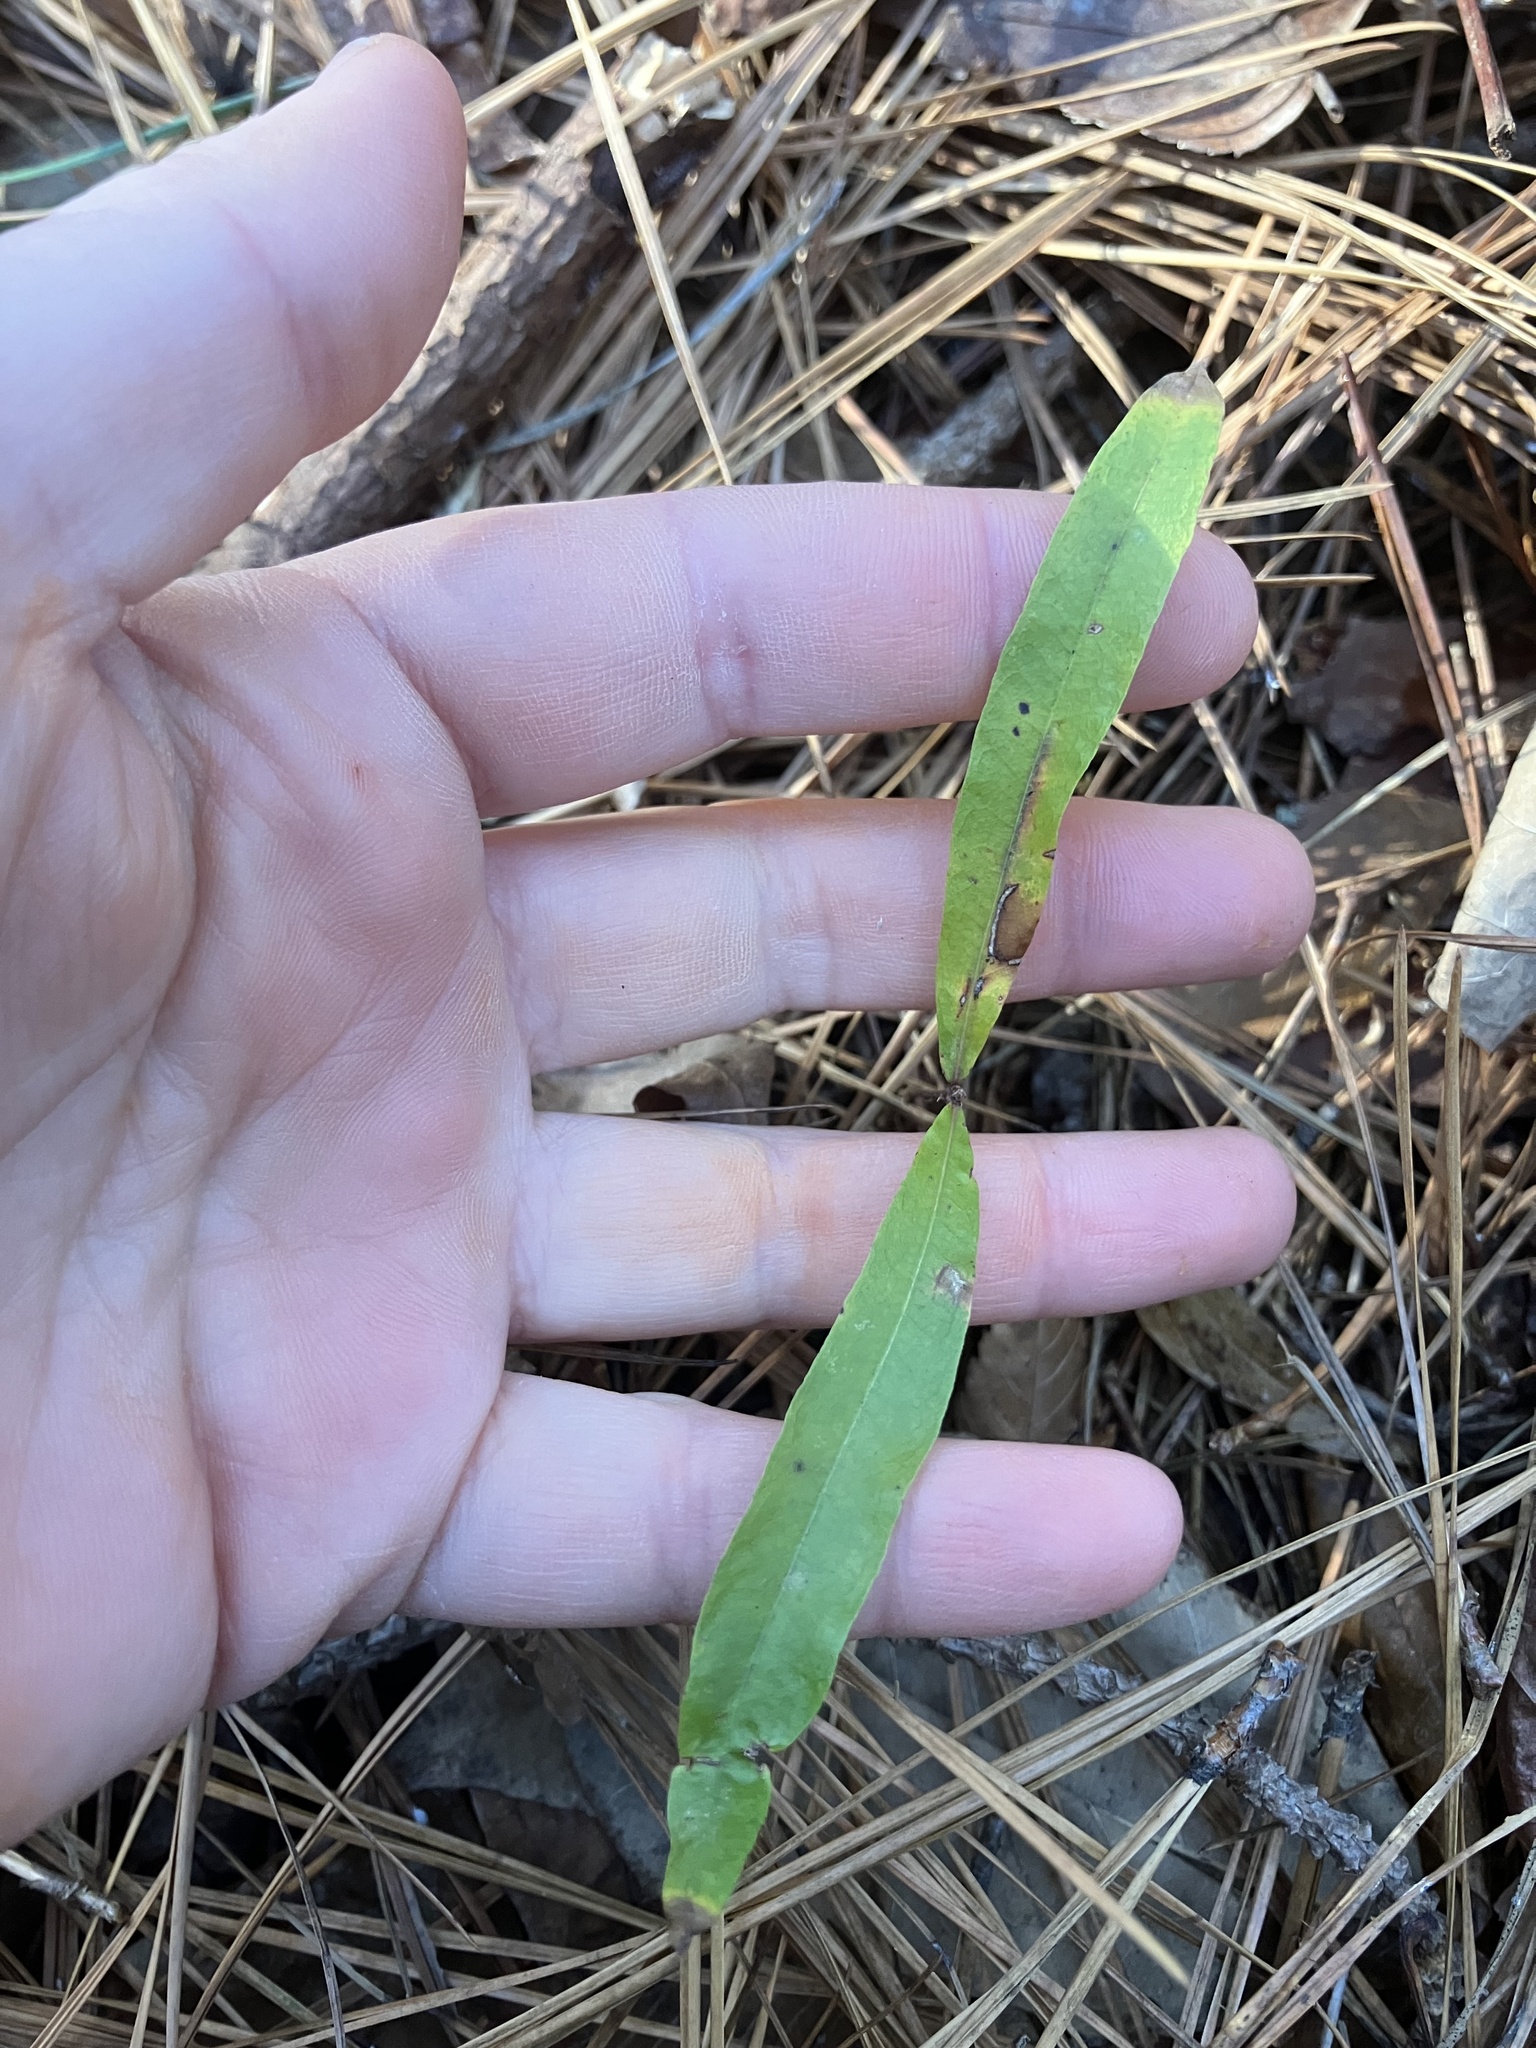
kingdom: Plantae
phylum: Tracheophyta
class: Magnoliopsida
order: Fagales
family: Fagaceae
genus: Quercus
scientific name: Quercus phellos
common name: Willow oak
